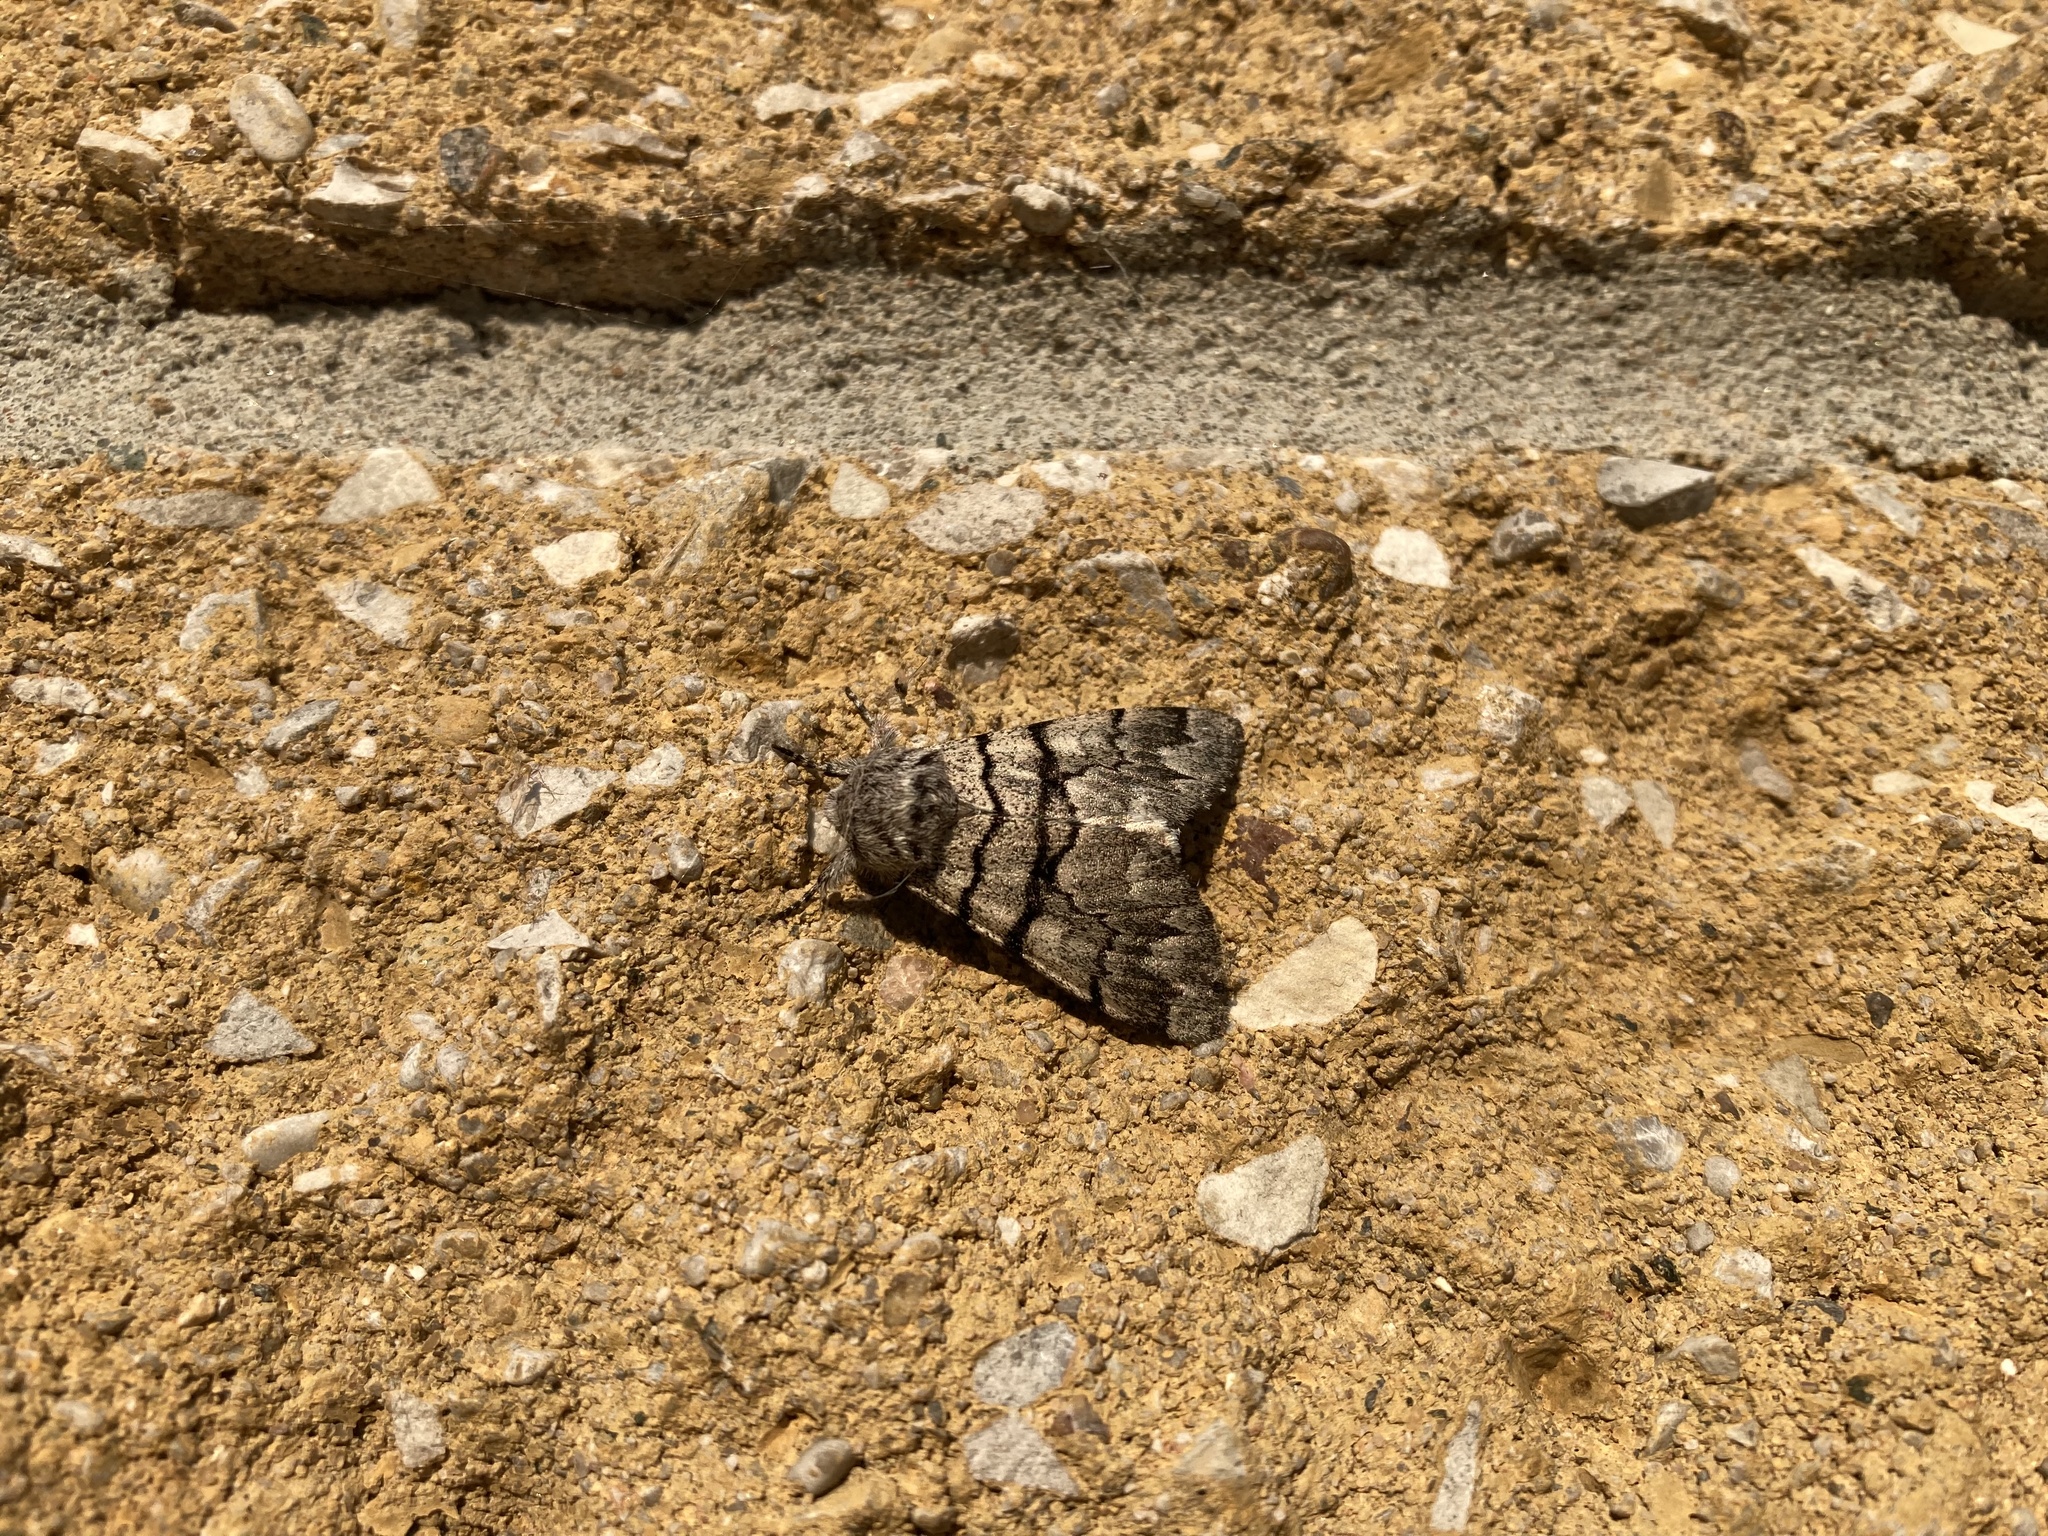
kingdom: Animalia
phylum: Arthropoda
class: Insecta
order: Lepidoptera
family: Noctuidae
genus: Panthea
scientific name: Panthea furcilla
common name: Eastern panthea moth
